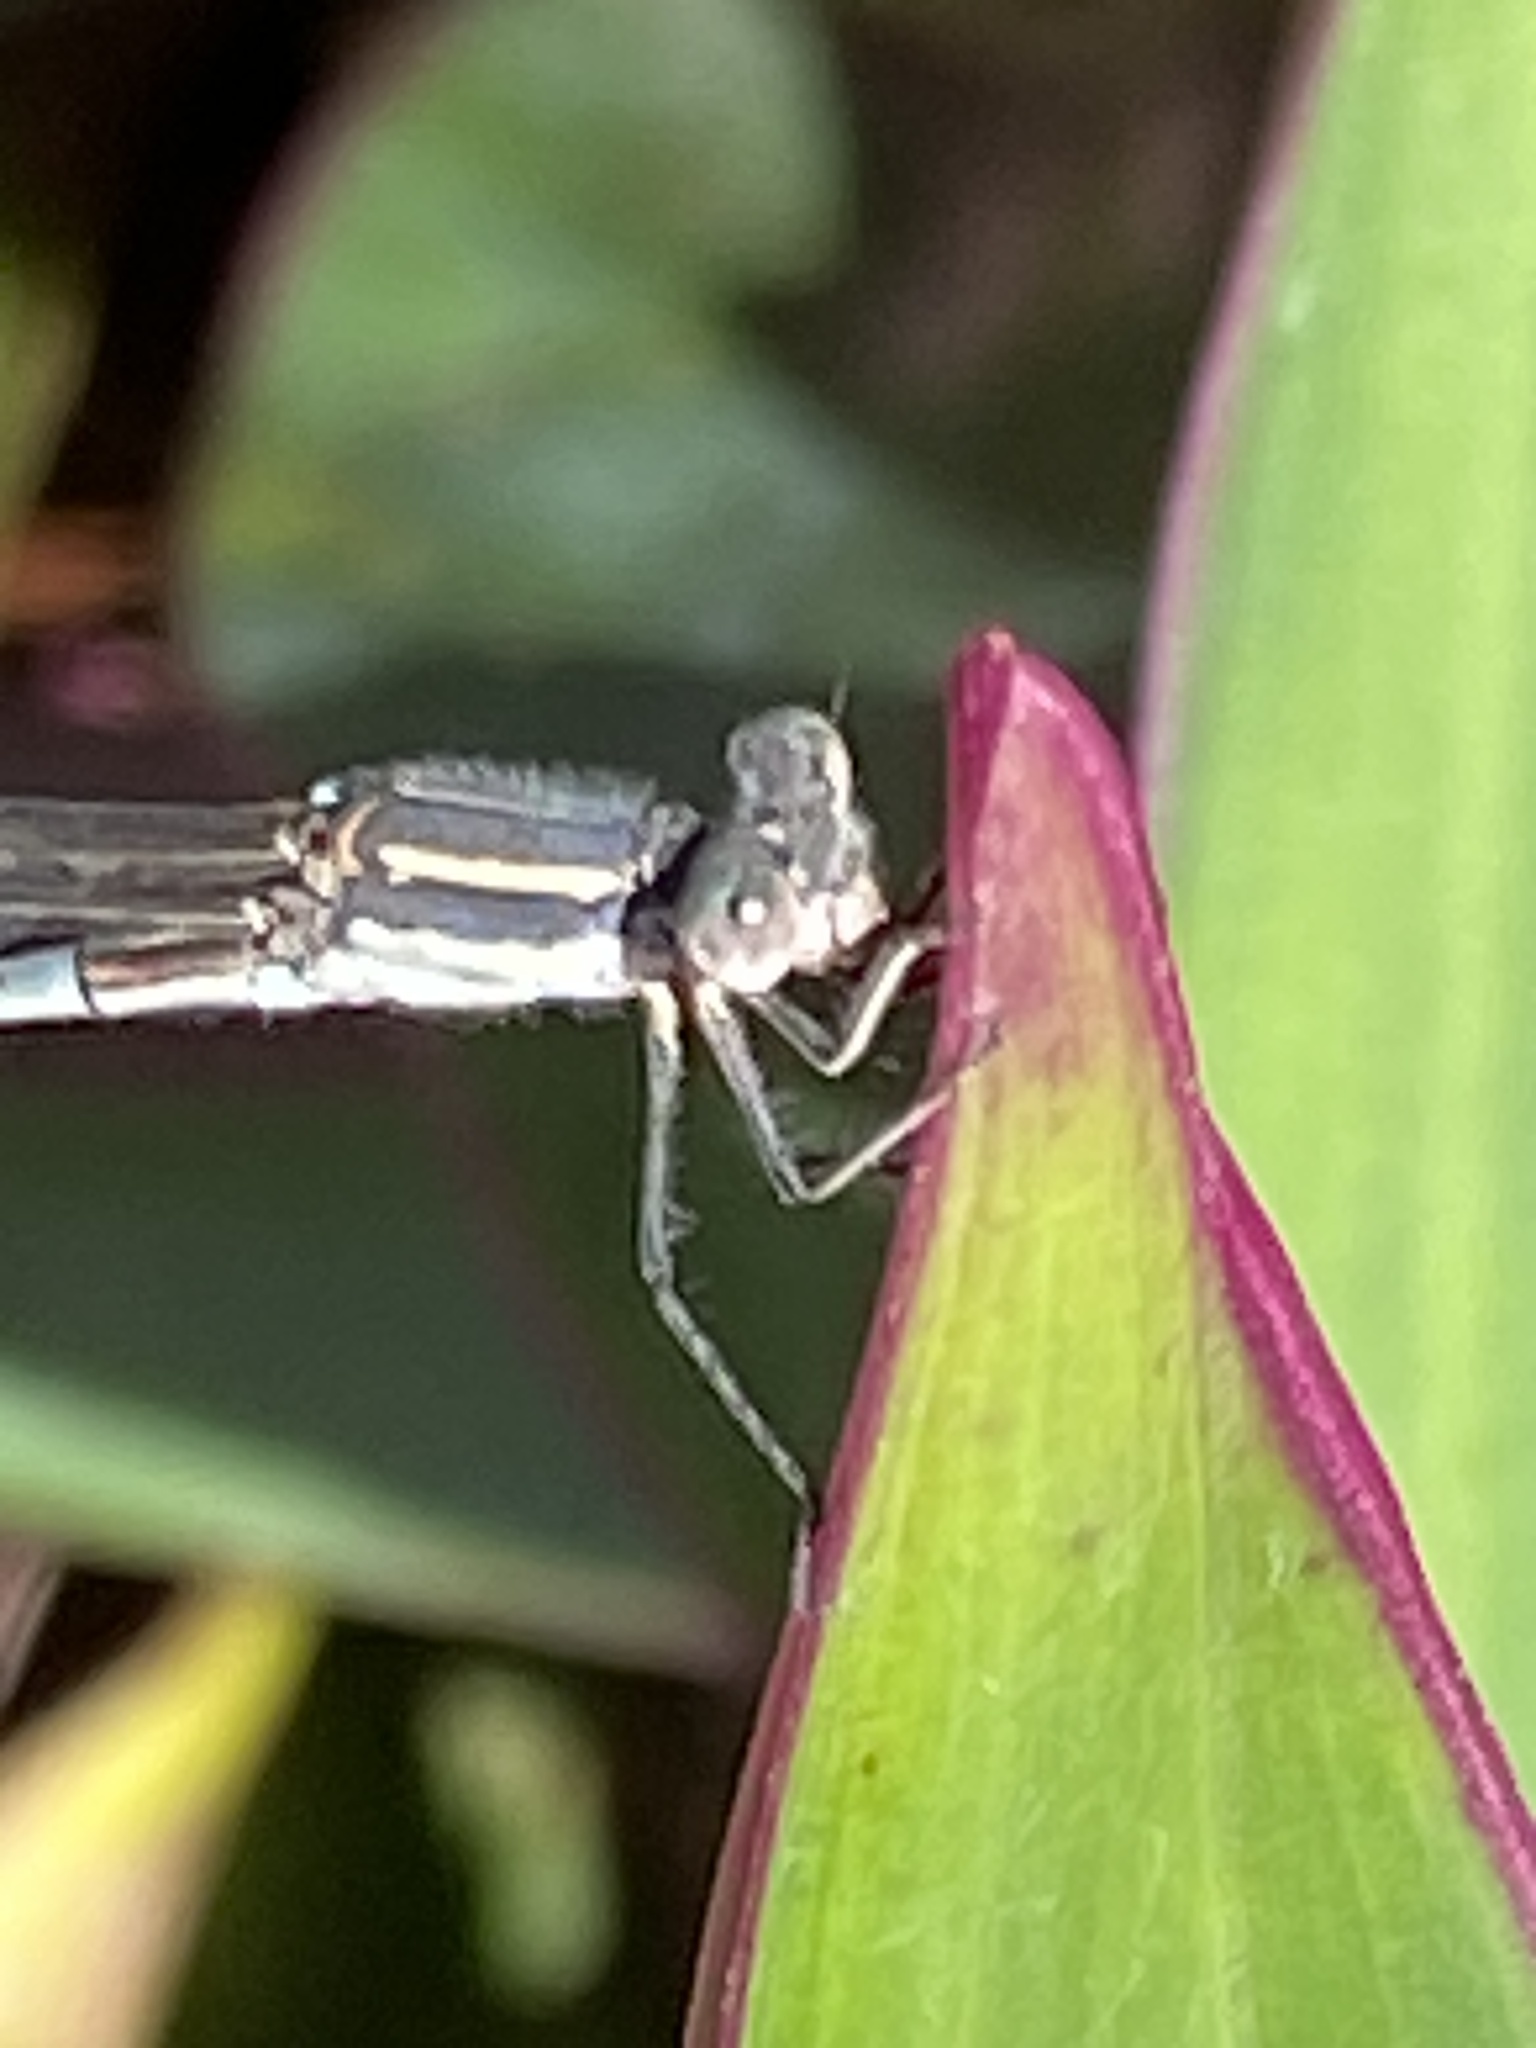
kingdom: Animalia
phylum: Arthropoda
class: Insecta
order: Odonata
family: Lestidae
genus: Austrolestes
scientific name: Austrolestes leda
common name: Wandering ringtail
